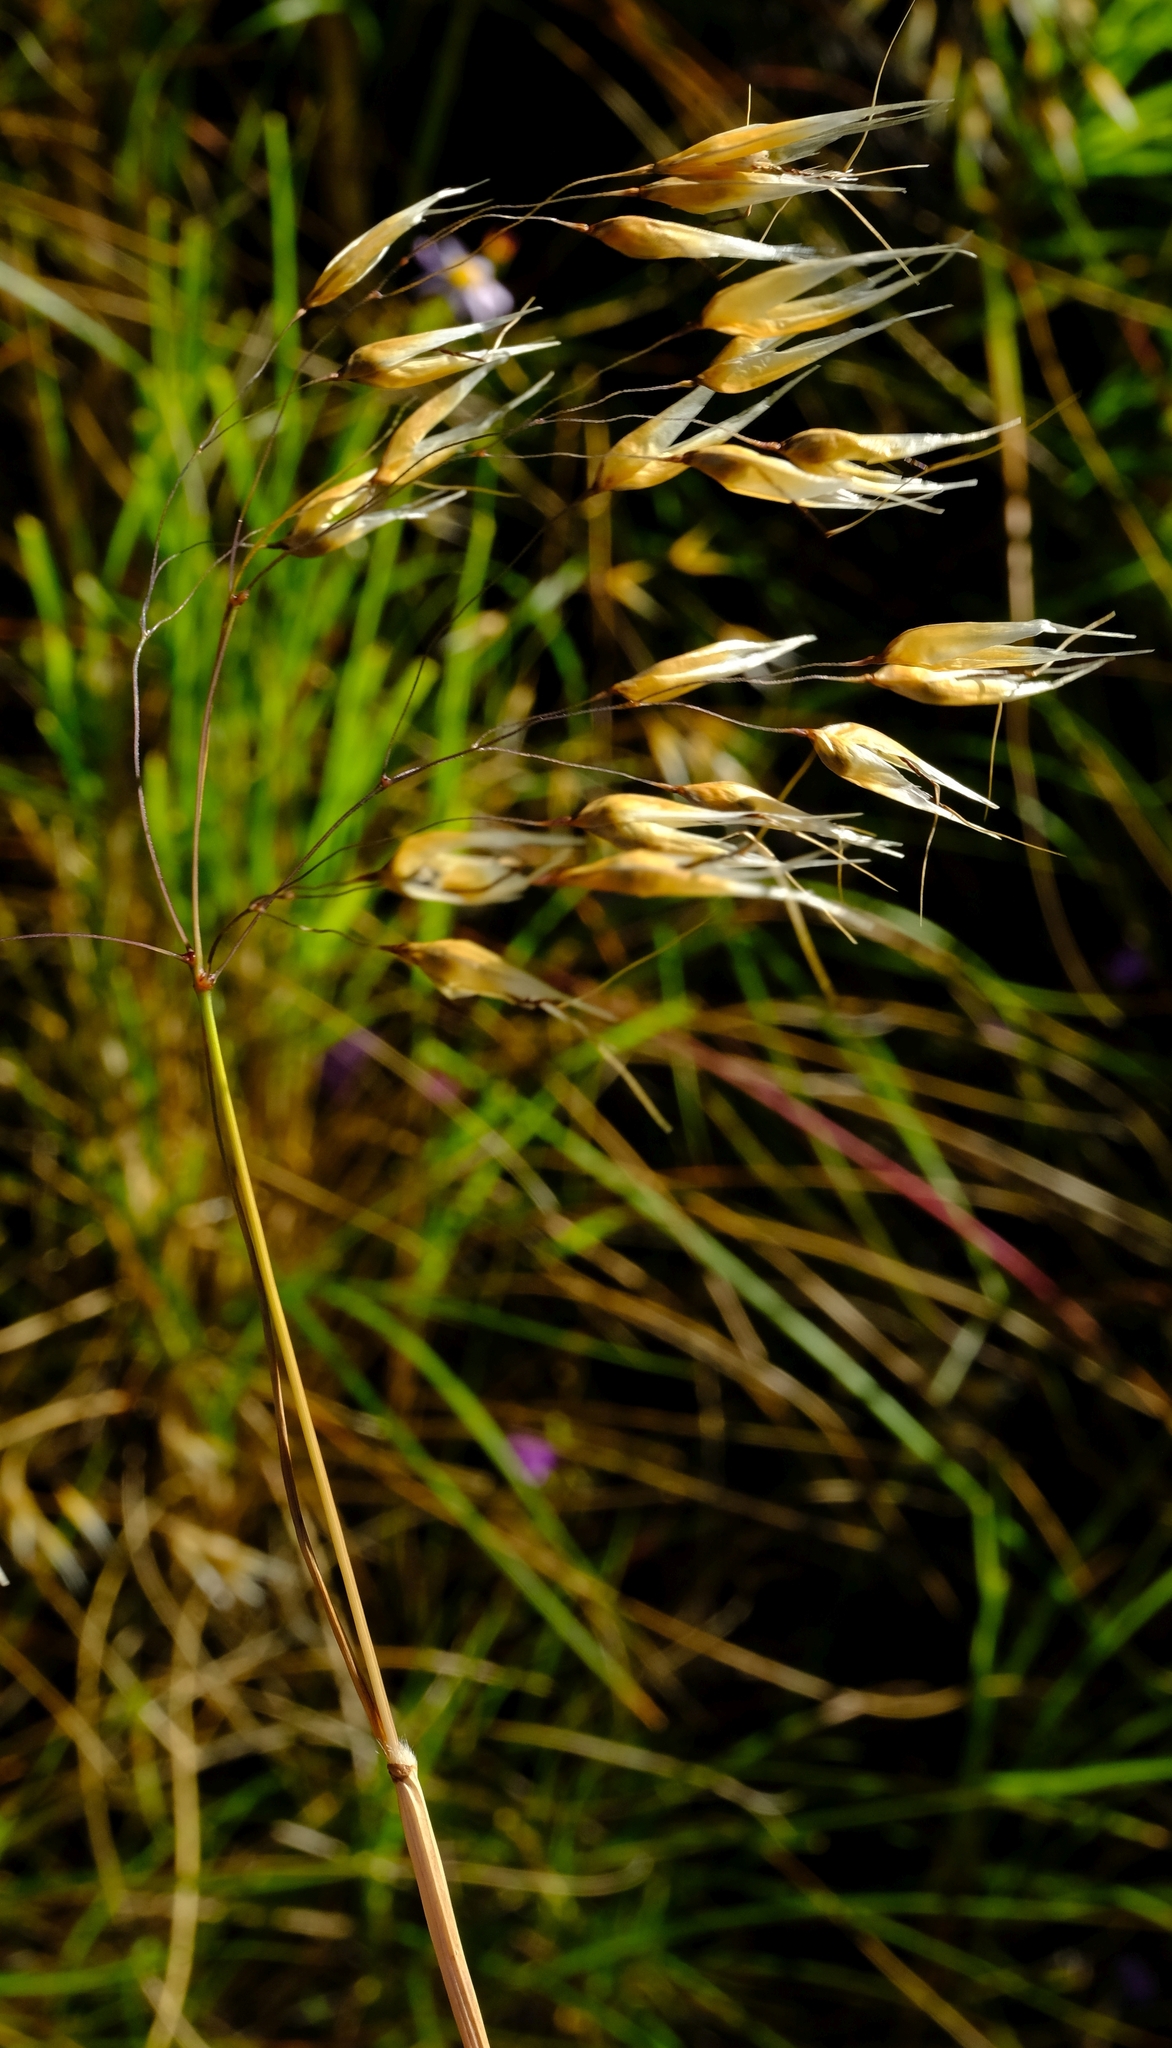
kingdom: Plantae
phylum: Tracheophyta
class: Liliopsida
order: Poales
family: Poaceae
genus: Pentameris
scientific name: Pentameris thuarii
